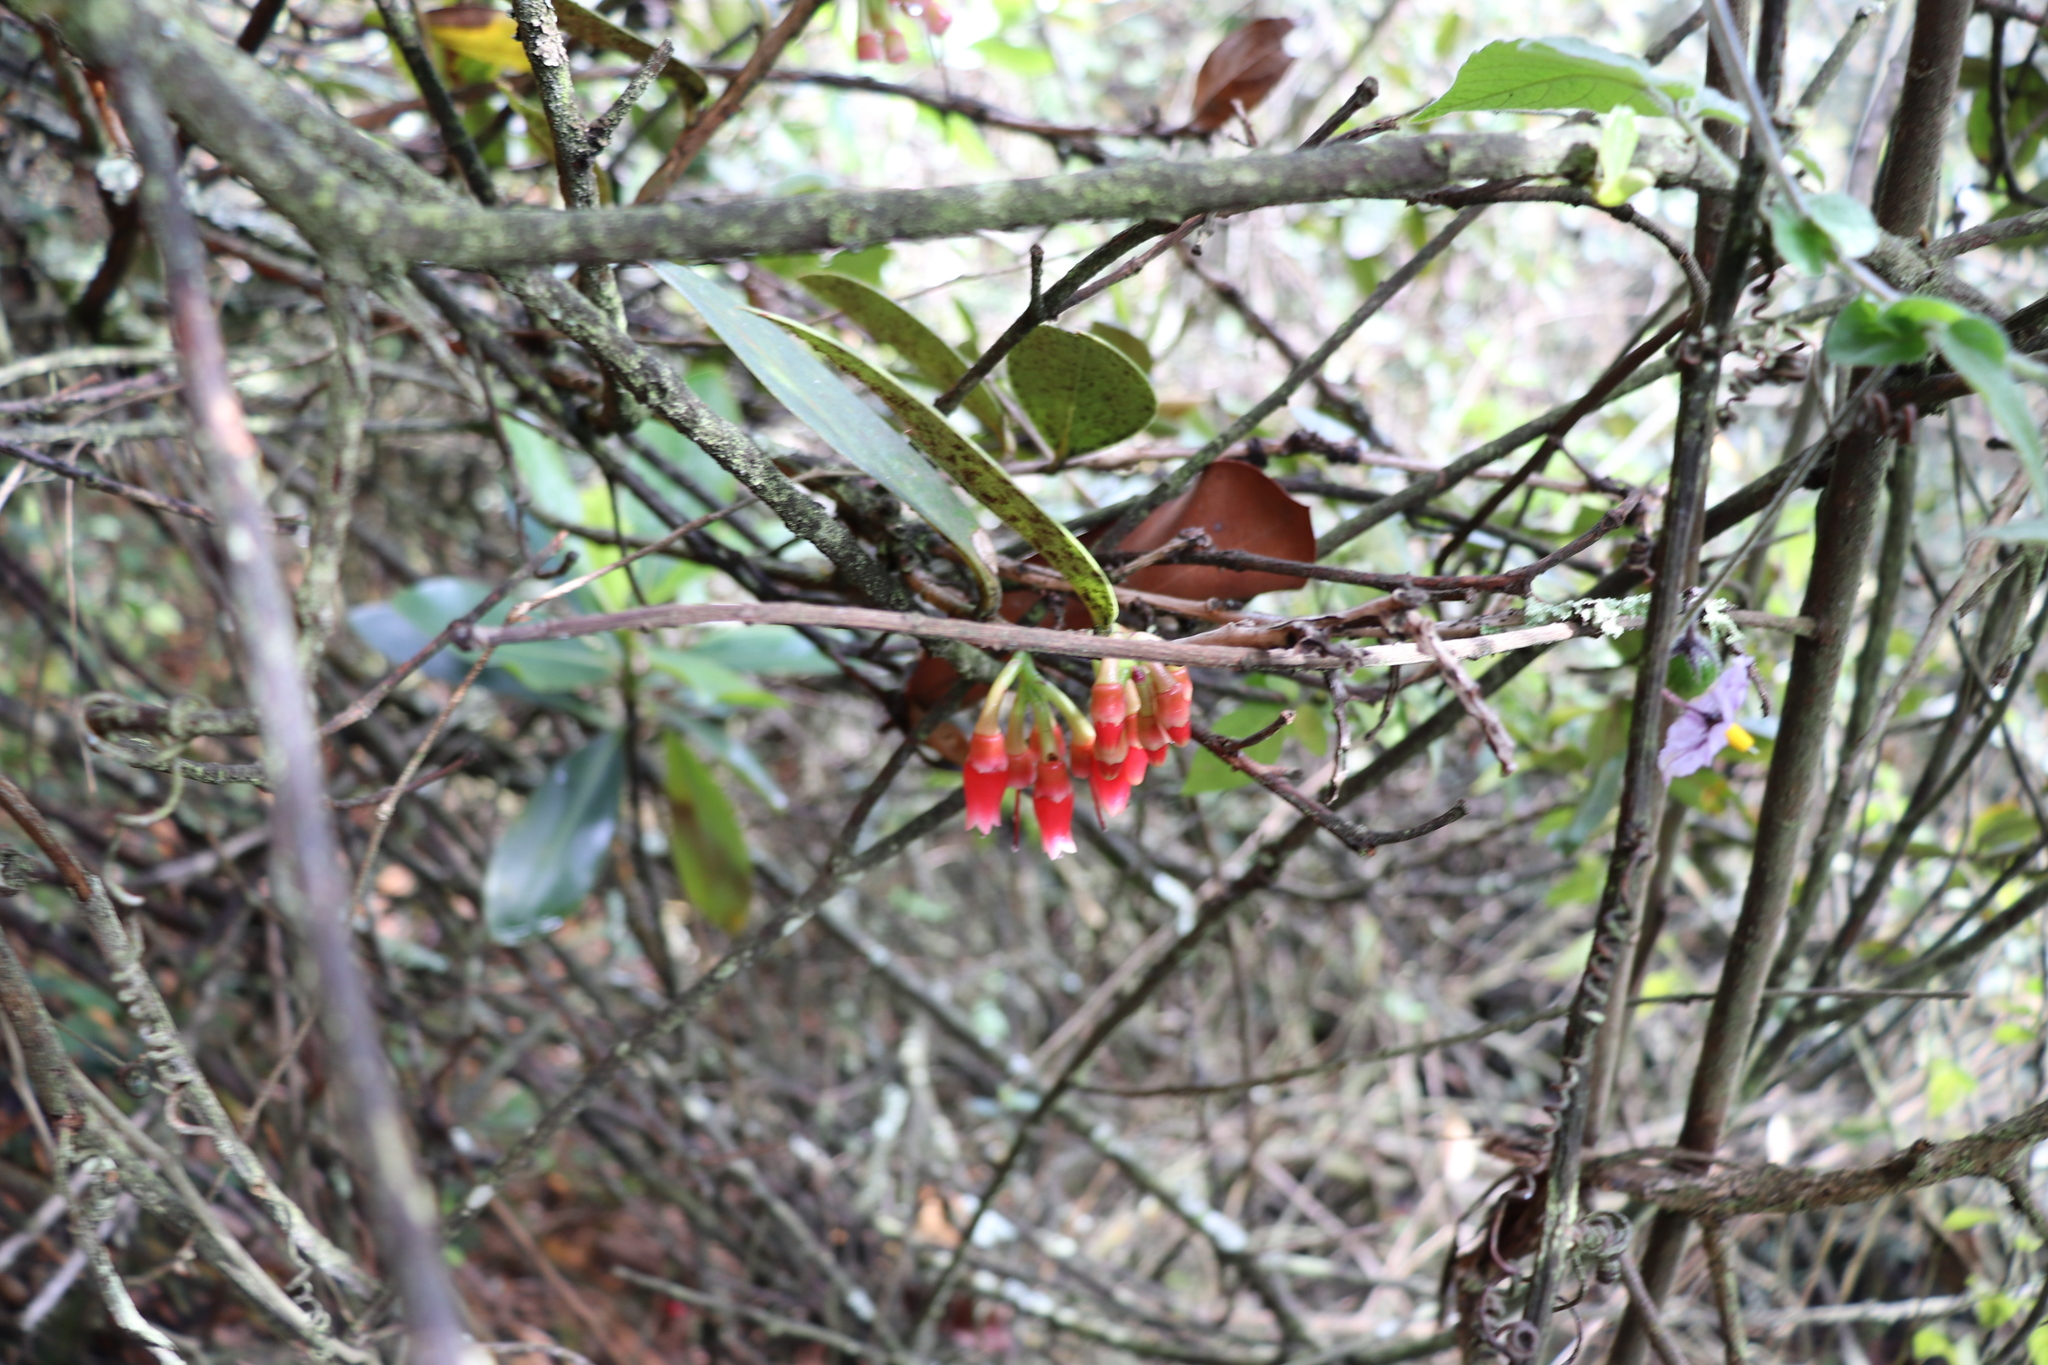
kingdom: Plantae
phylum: Tracheophyta
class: Magnoliopsida
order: Ericales
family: Ericaceae
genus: Macleania
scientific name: Macleania rupestris
